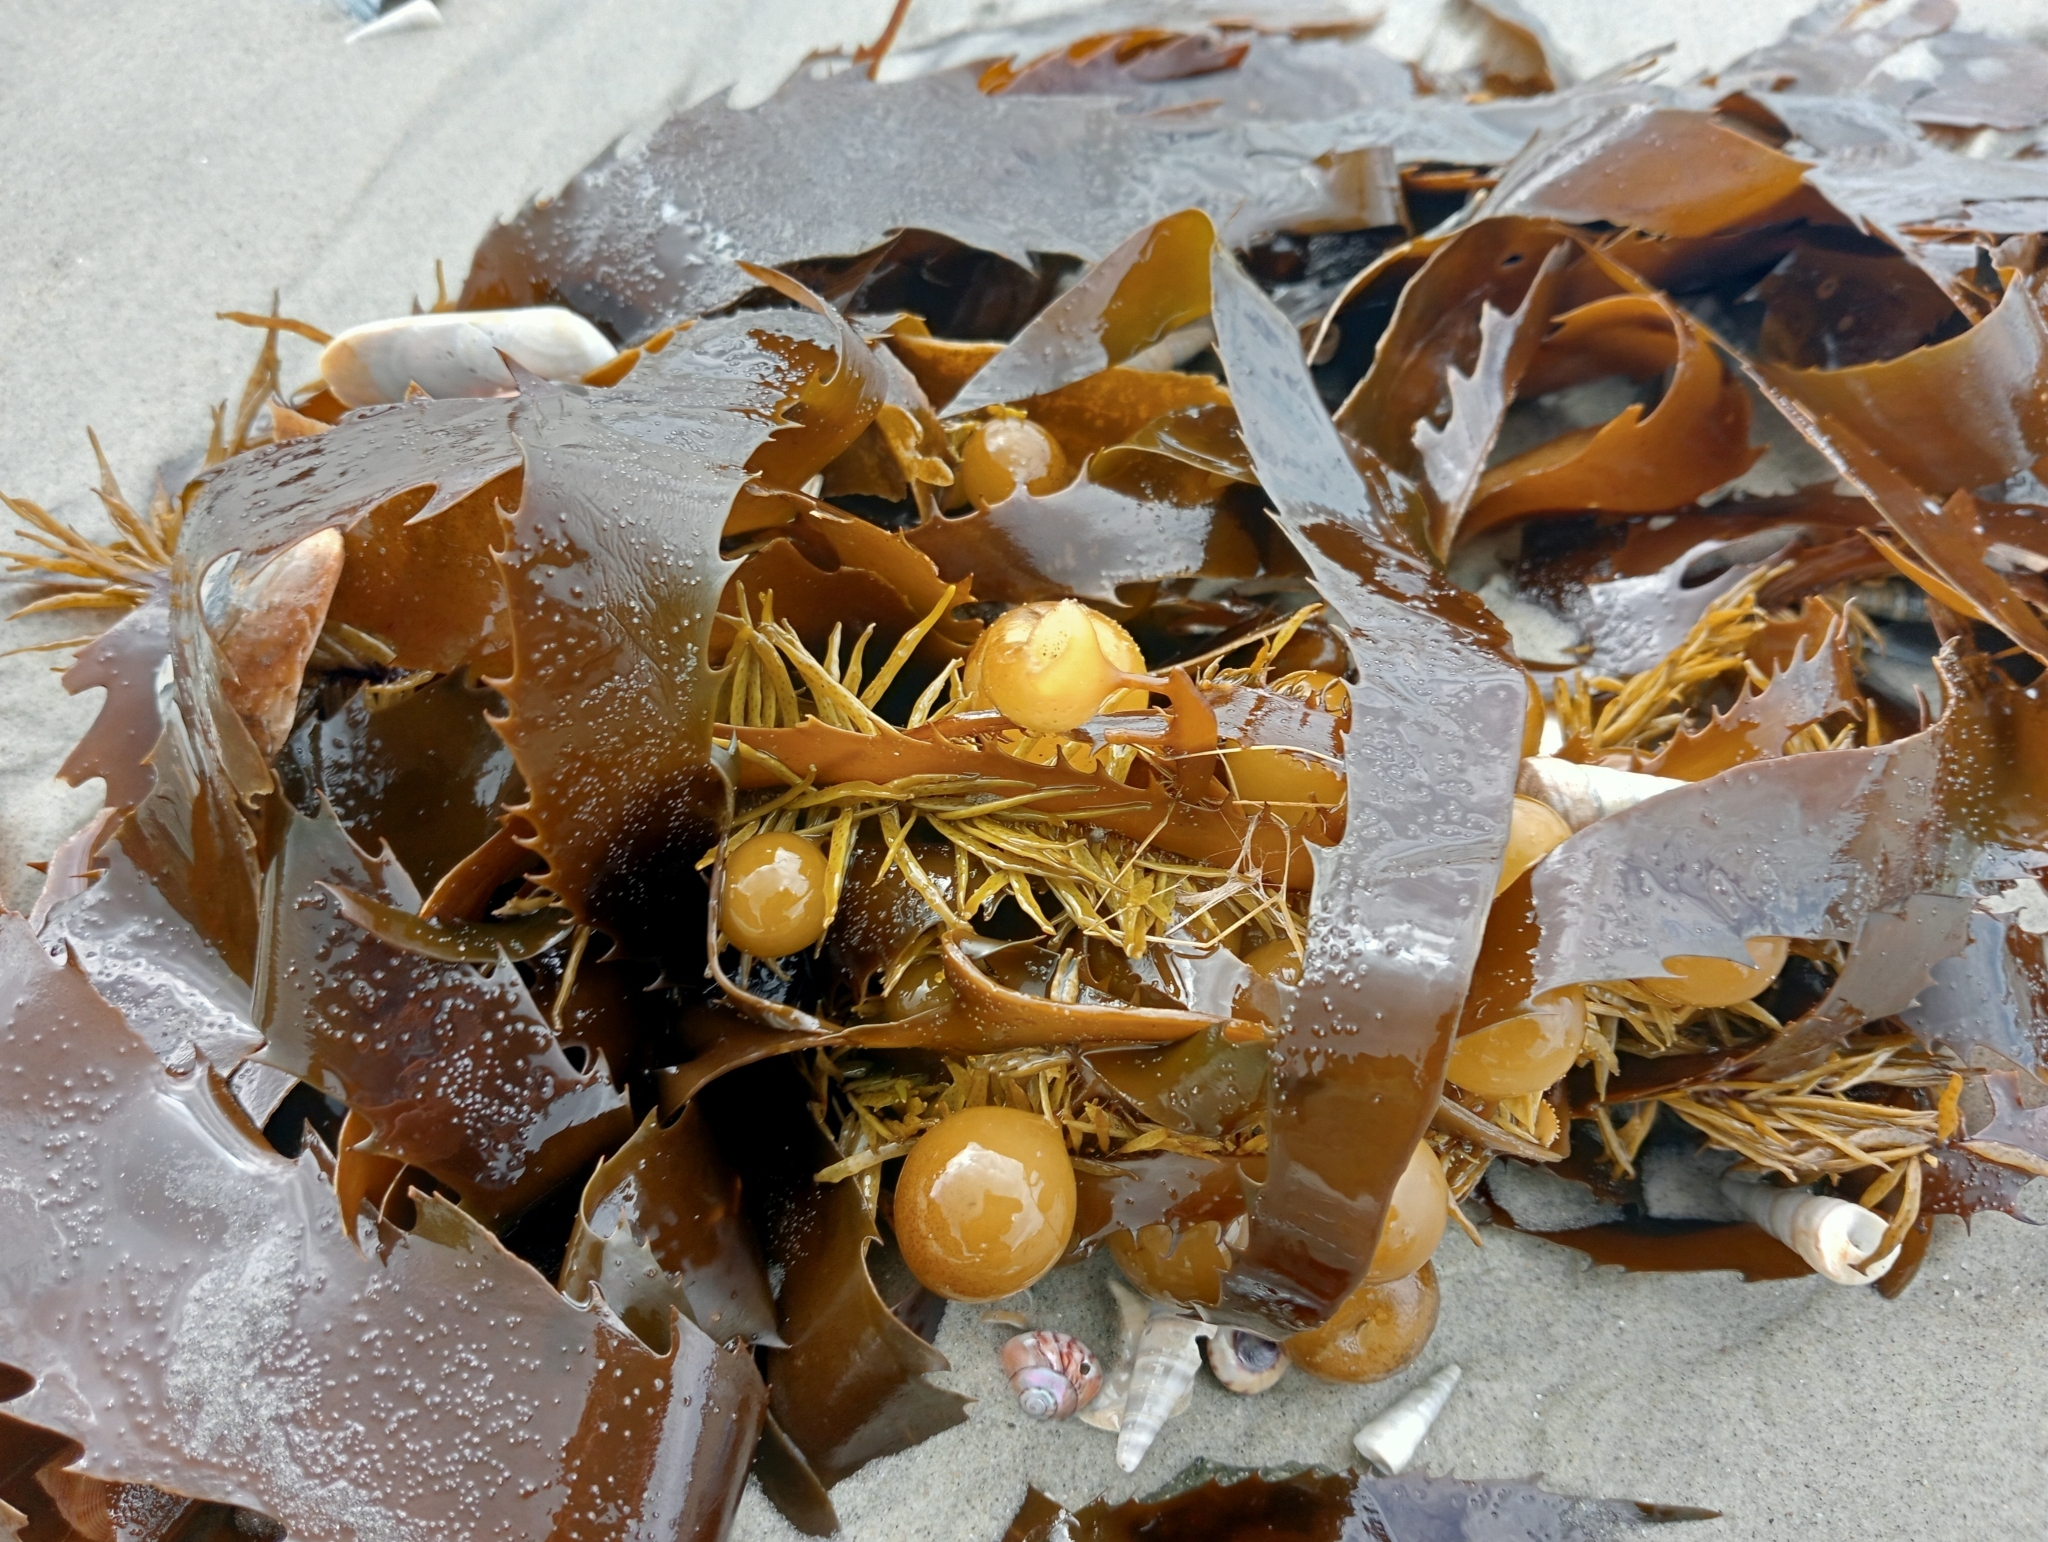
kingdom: Chromista
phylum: Ochrophyta
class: Phaeophyceae
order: Fucales
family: Seirococcaceae
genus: Marginariella
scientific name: Marginariella urvilliana
